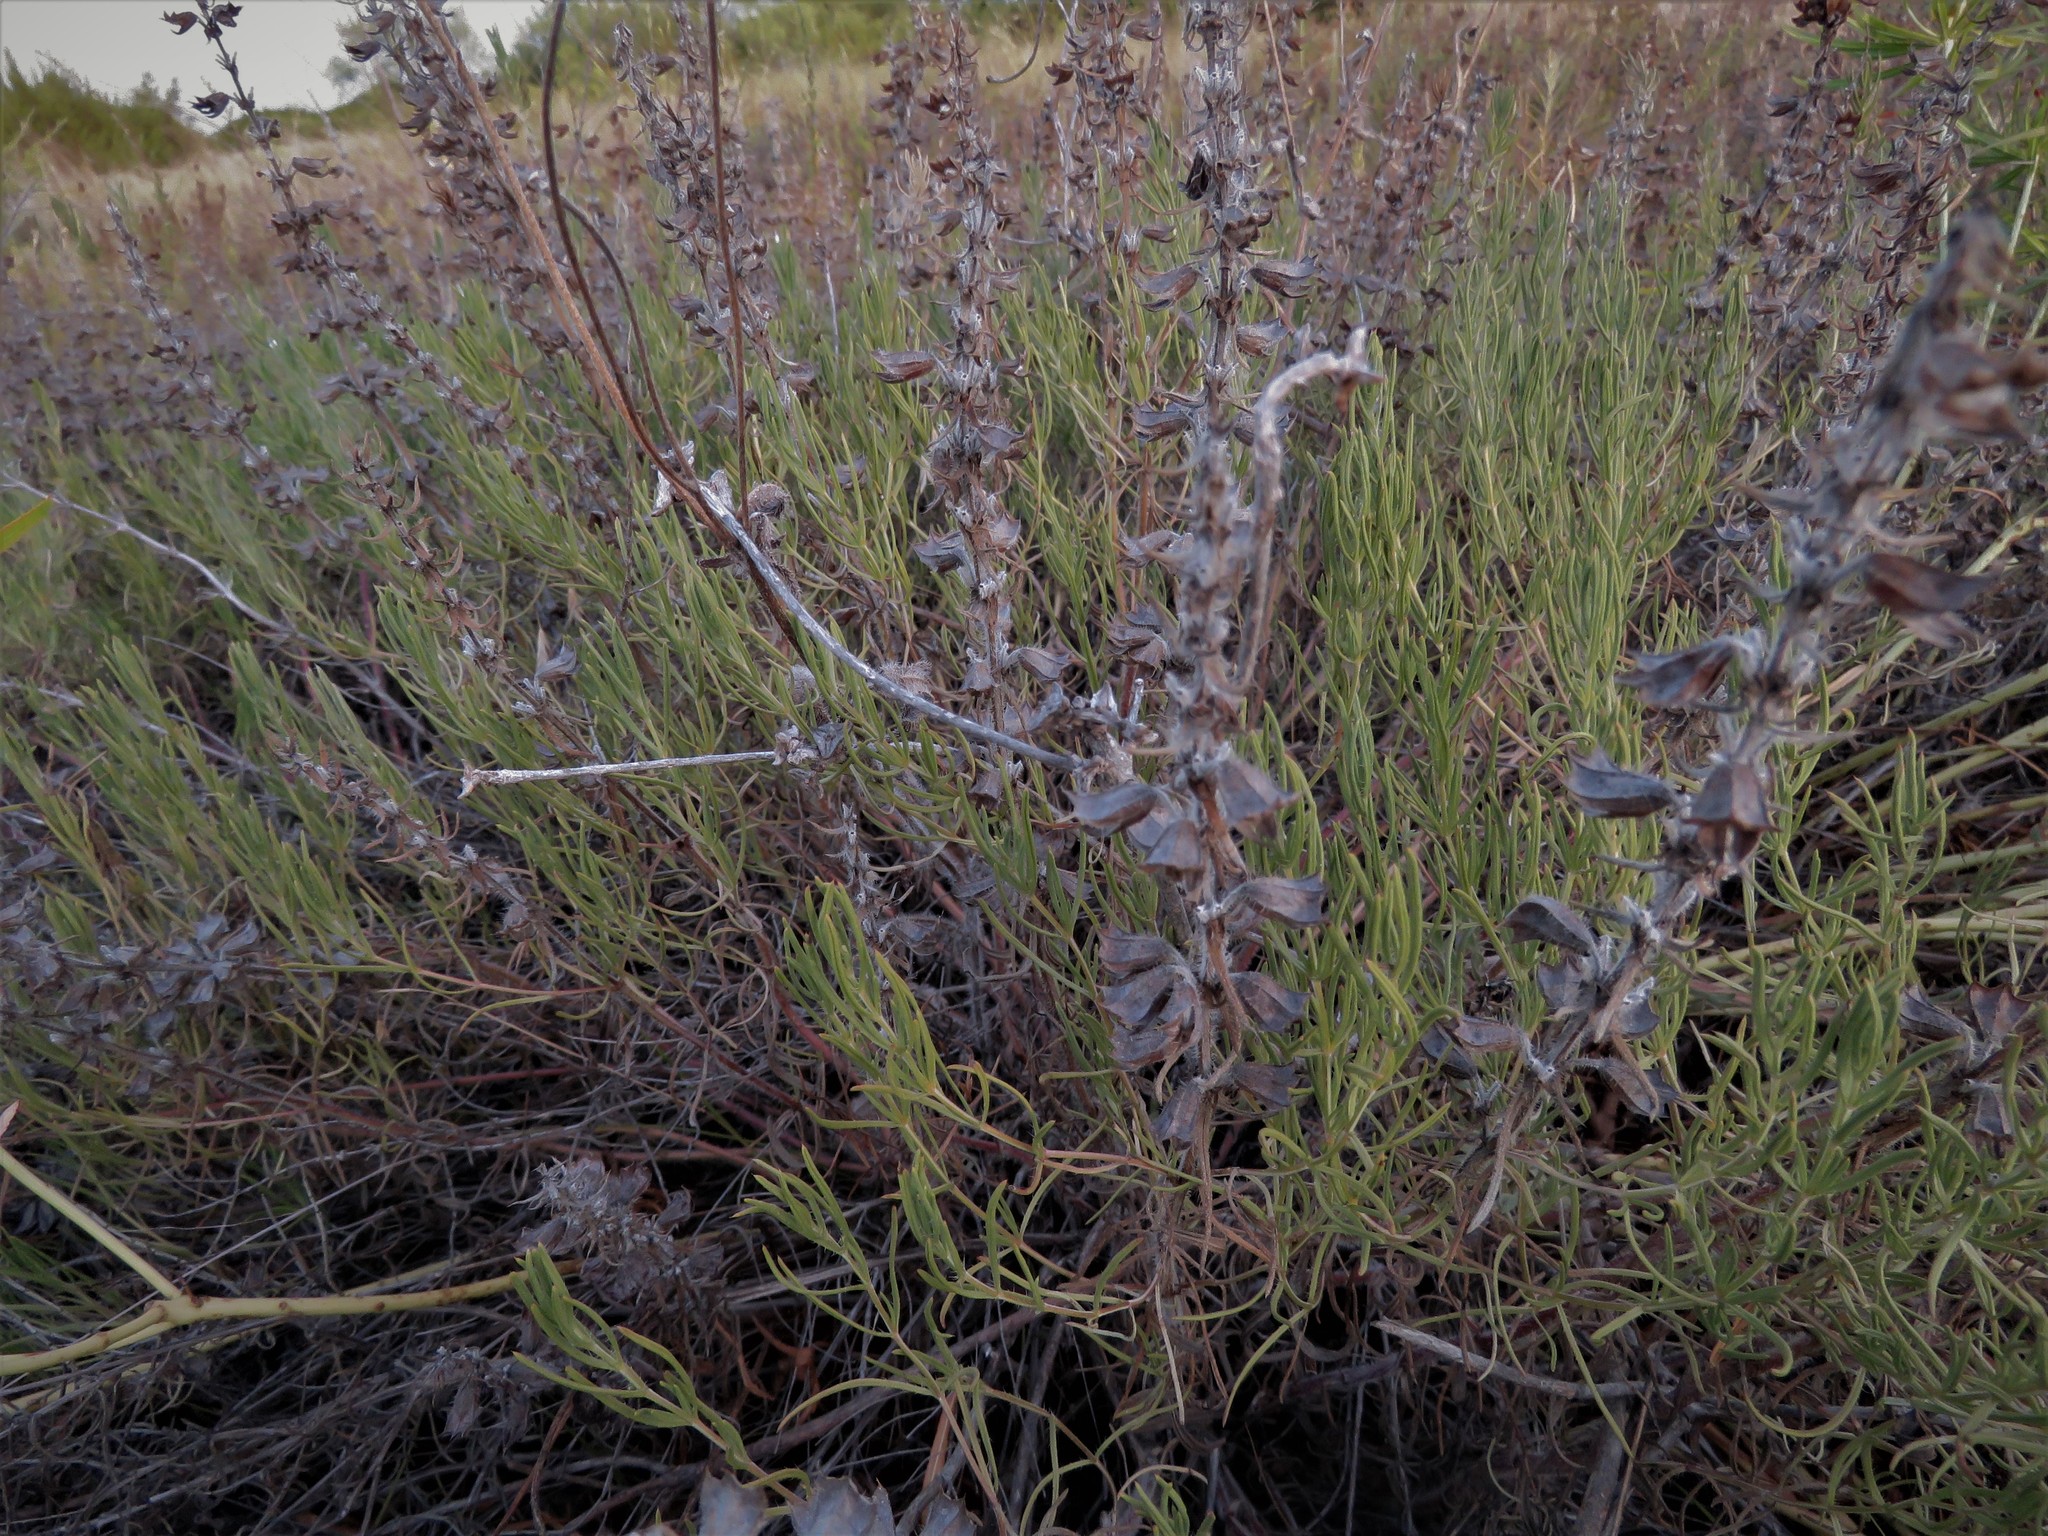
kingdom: Plantae
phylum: Tracheophyta
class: Magnoliopsida
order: Lamiales
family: Lamiaceae
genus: Salvia
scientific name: Salvia texana
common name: Texas sage
